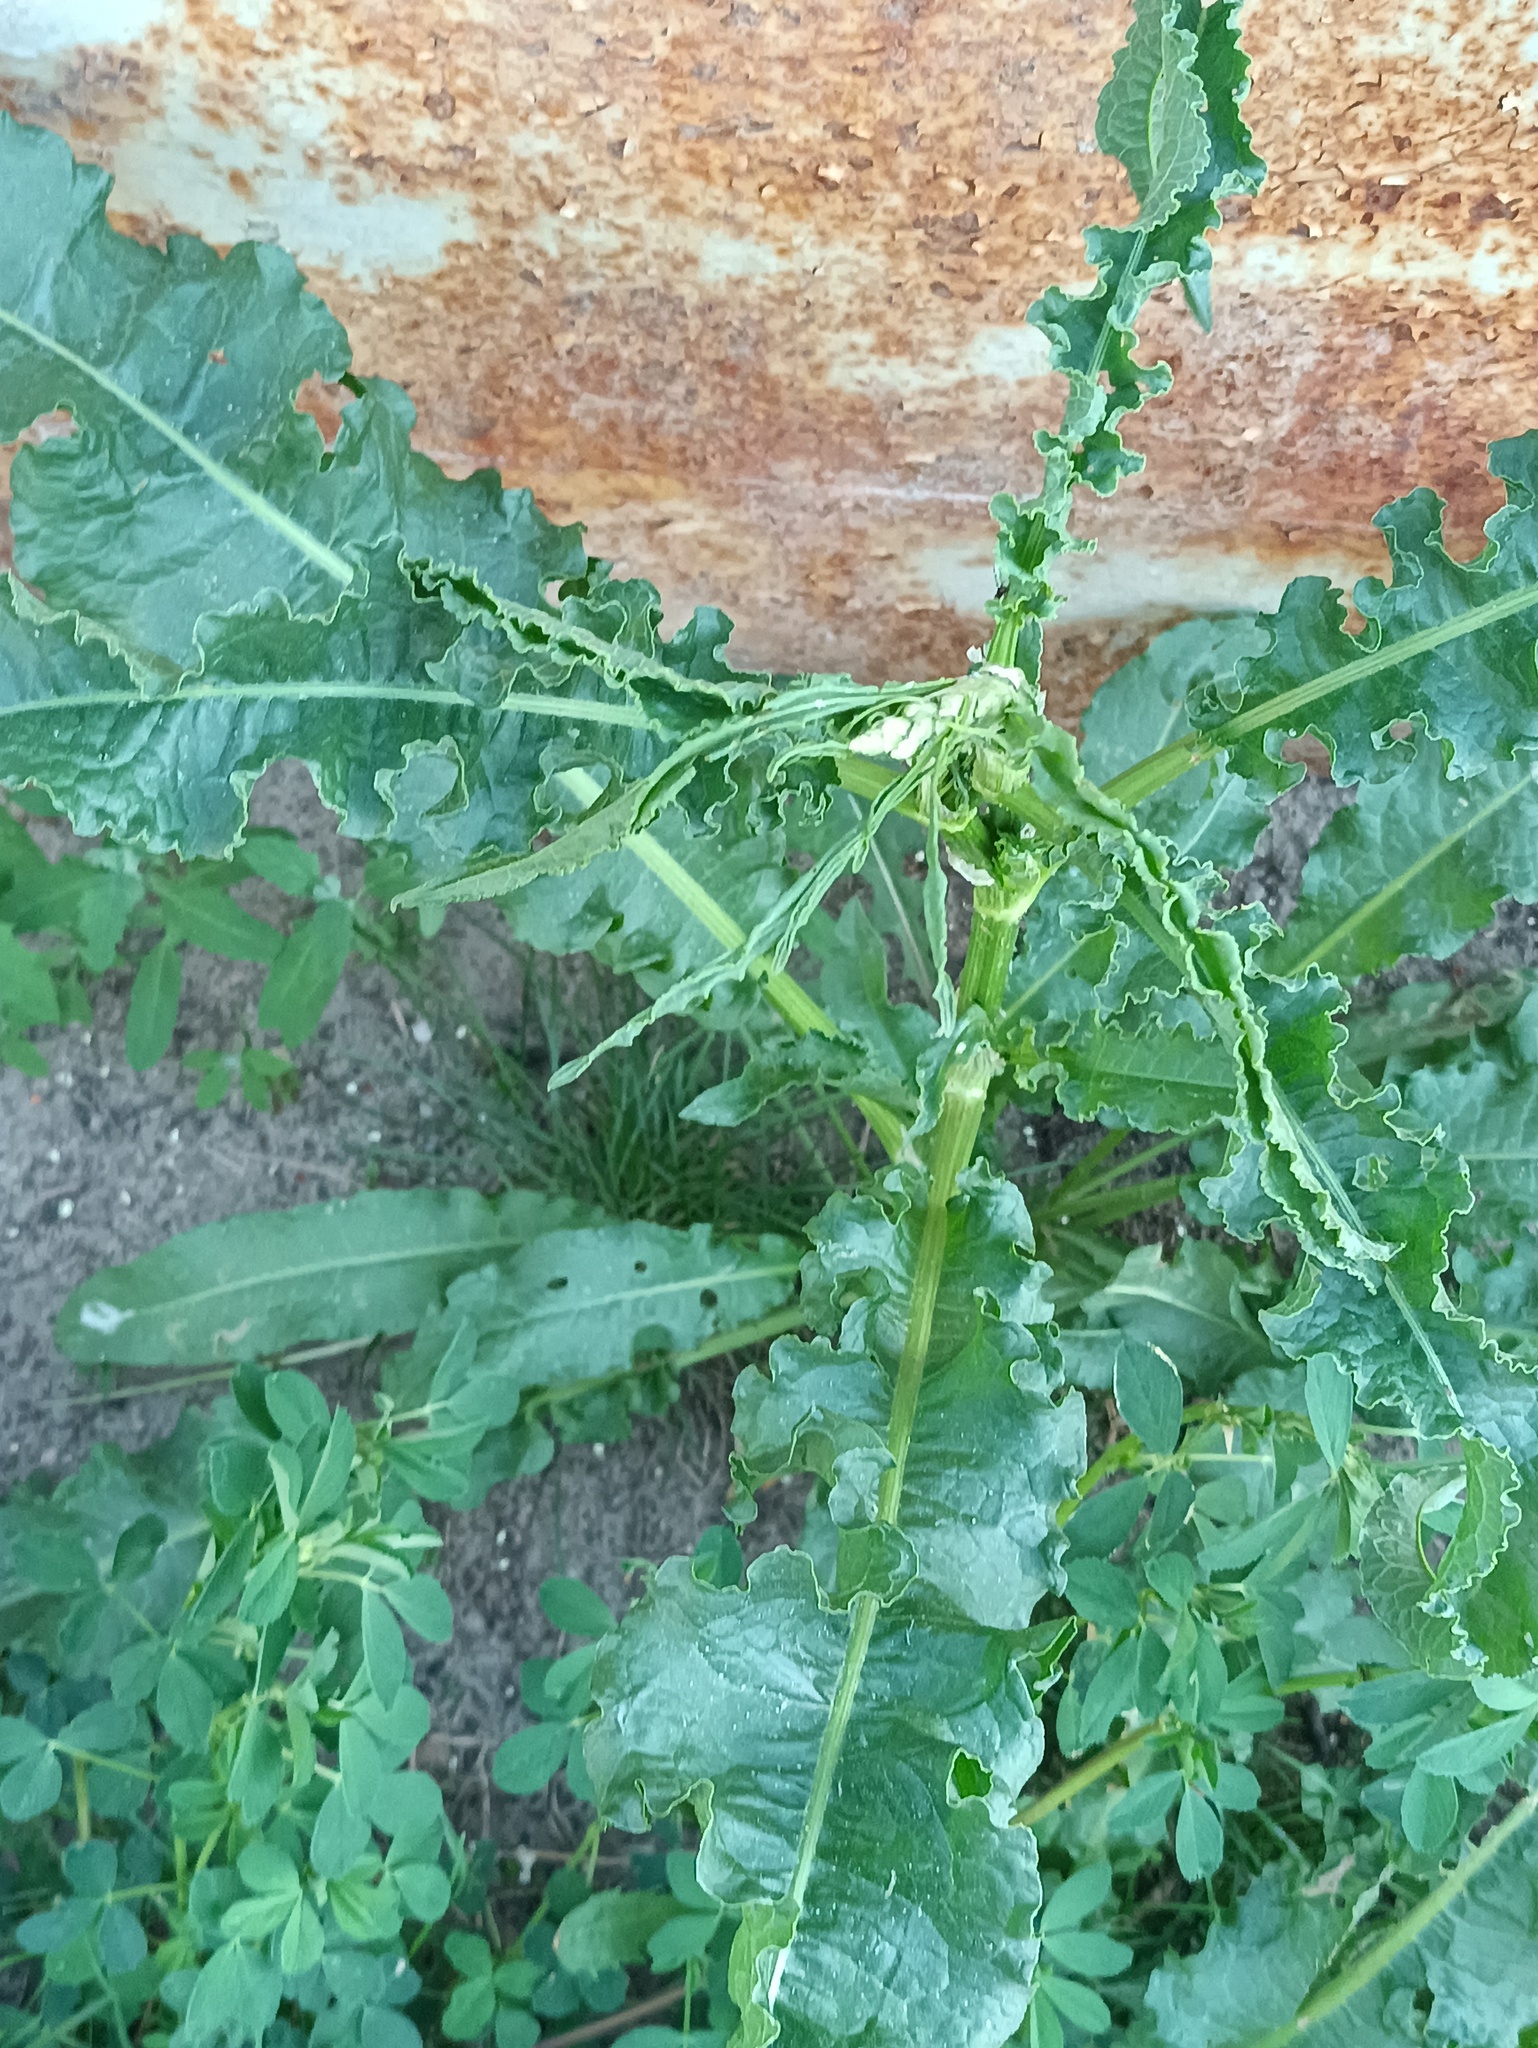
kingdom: Plantae
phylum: Tracheophyta
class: Magnoliopsida
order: Caryophyllales
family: Polygonaceae
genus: Rumex
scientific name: Rumex crispus
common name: Curled dock
